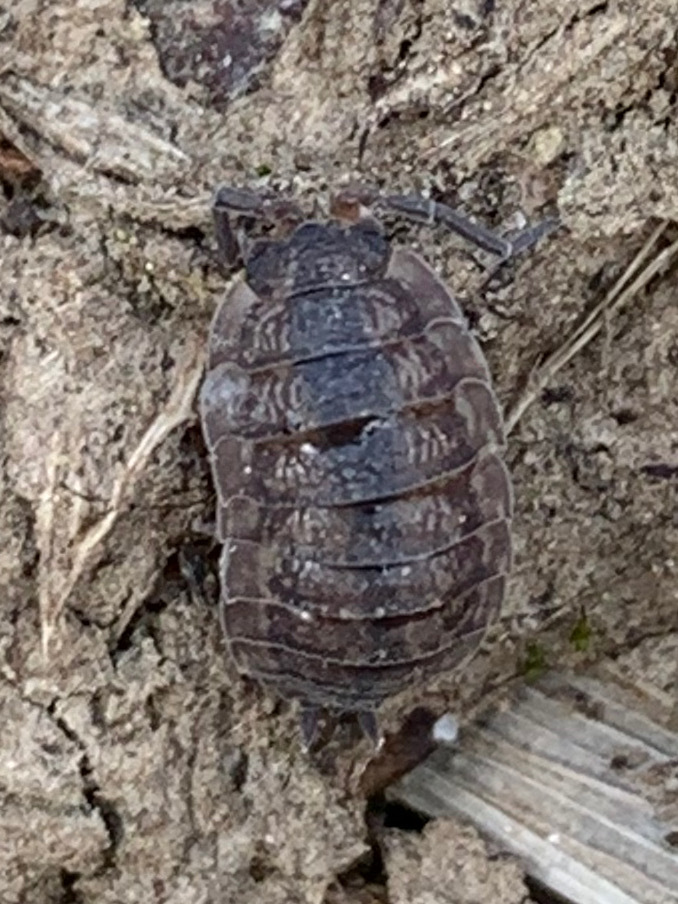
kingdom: Animalia
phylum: Arthropoda
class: Malacostraca
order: Isopoda
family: Porcellionidae
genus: Porcellio
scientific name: Porcellio scaber
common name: Common rough woodlouse
